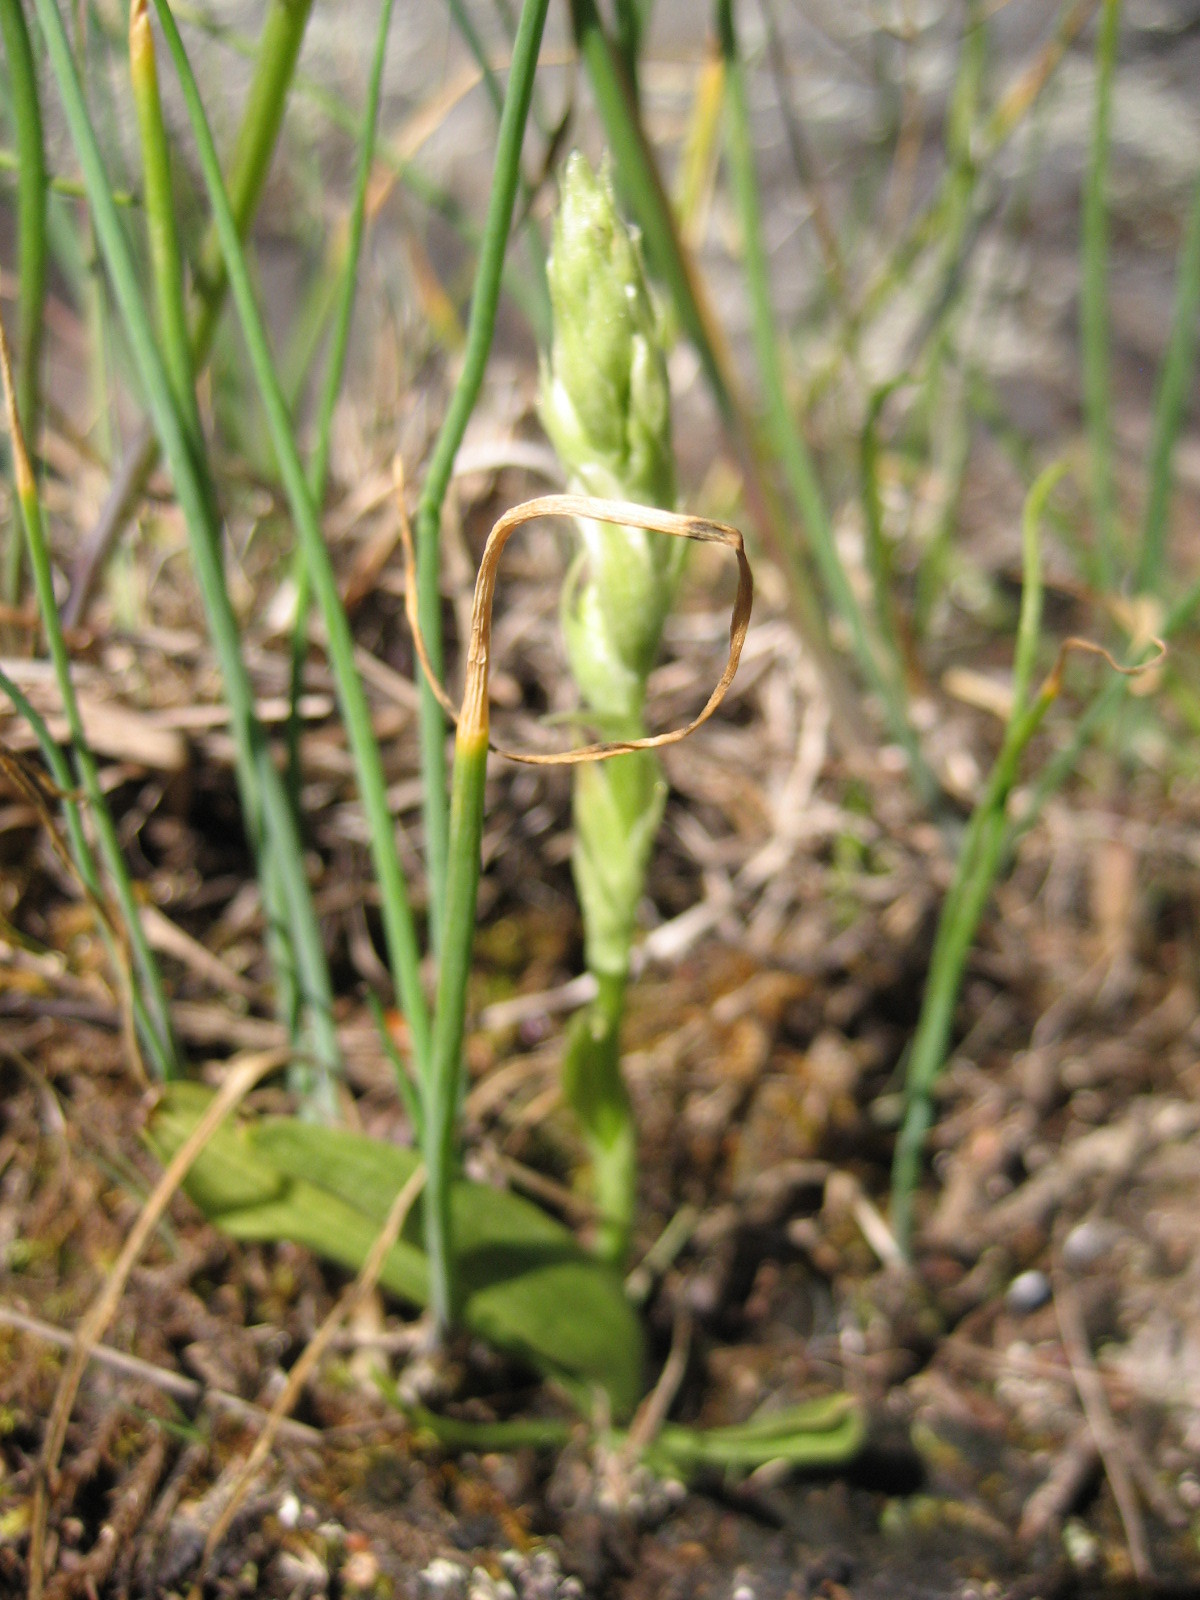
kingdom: Plantae
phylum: Tracheophyta
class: Liliopsida
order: Asparagales
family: Orchidaceae
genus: Spiranthes
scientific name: Spiranthes romanzoffiana
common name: Irish lady's-tresses
